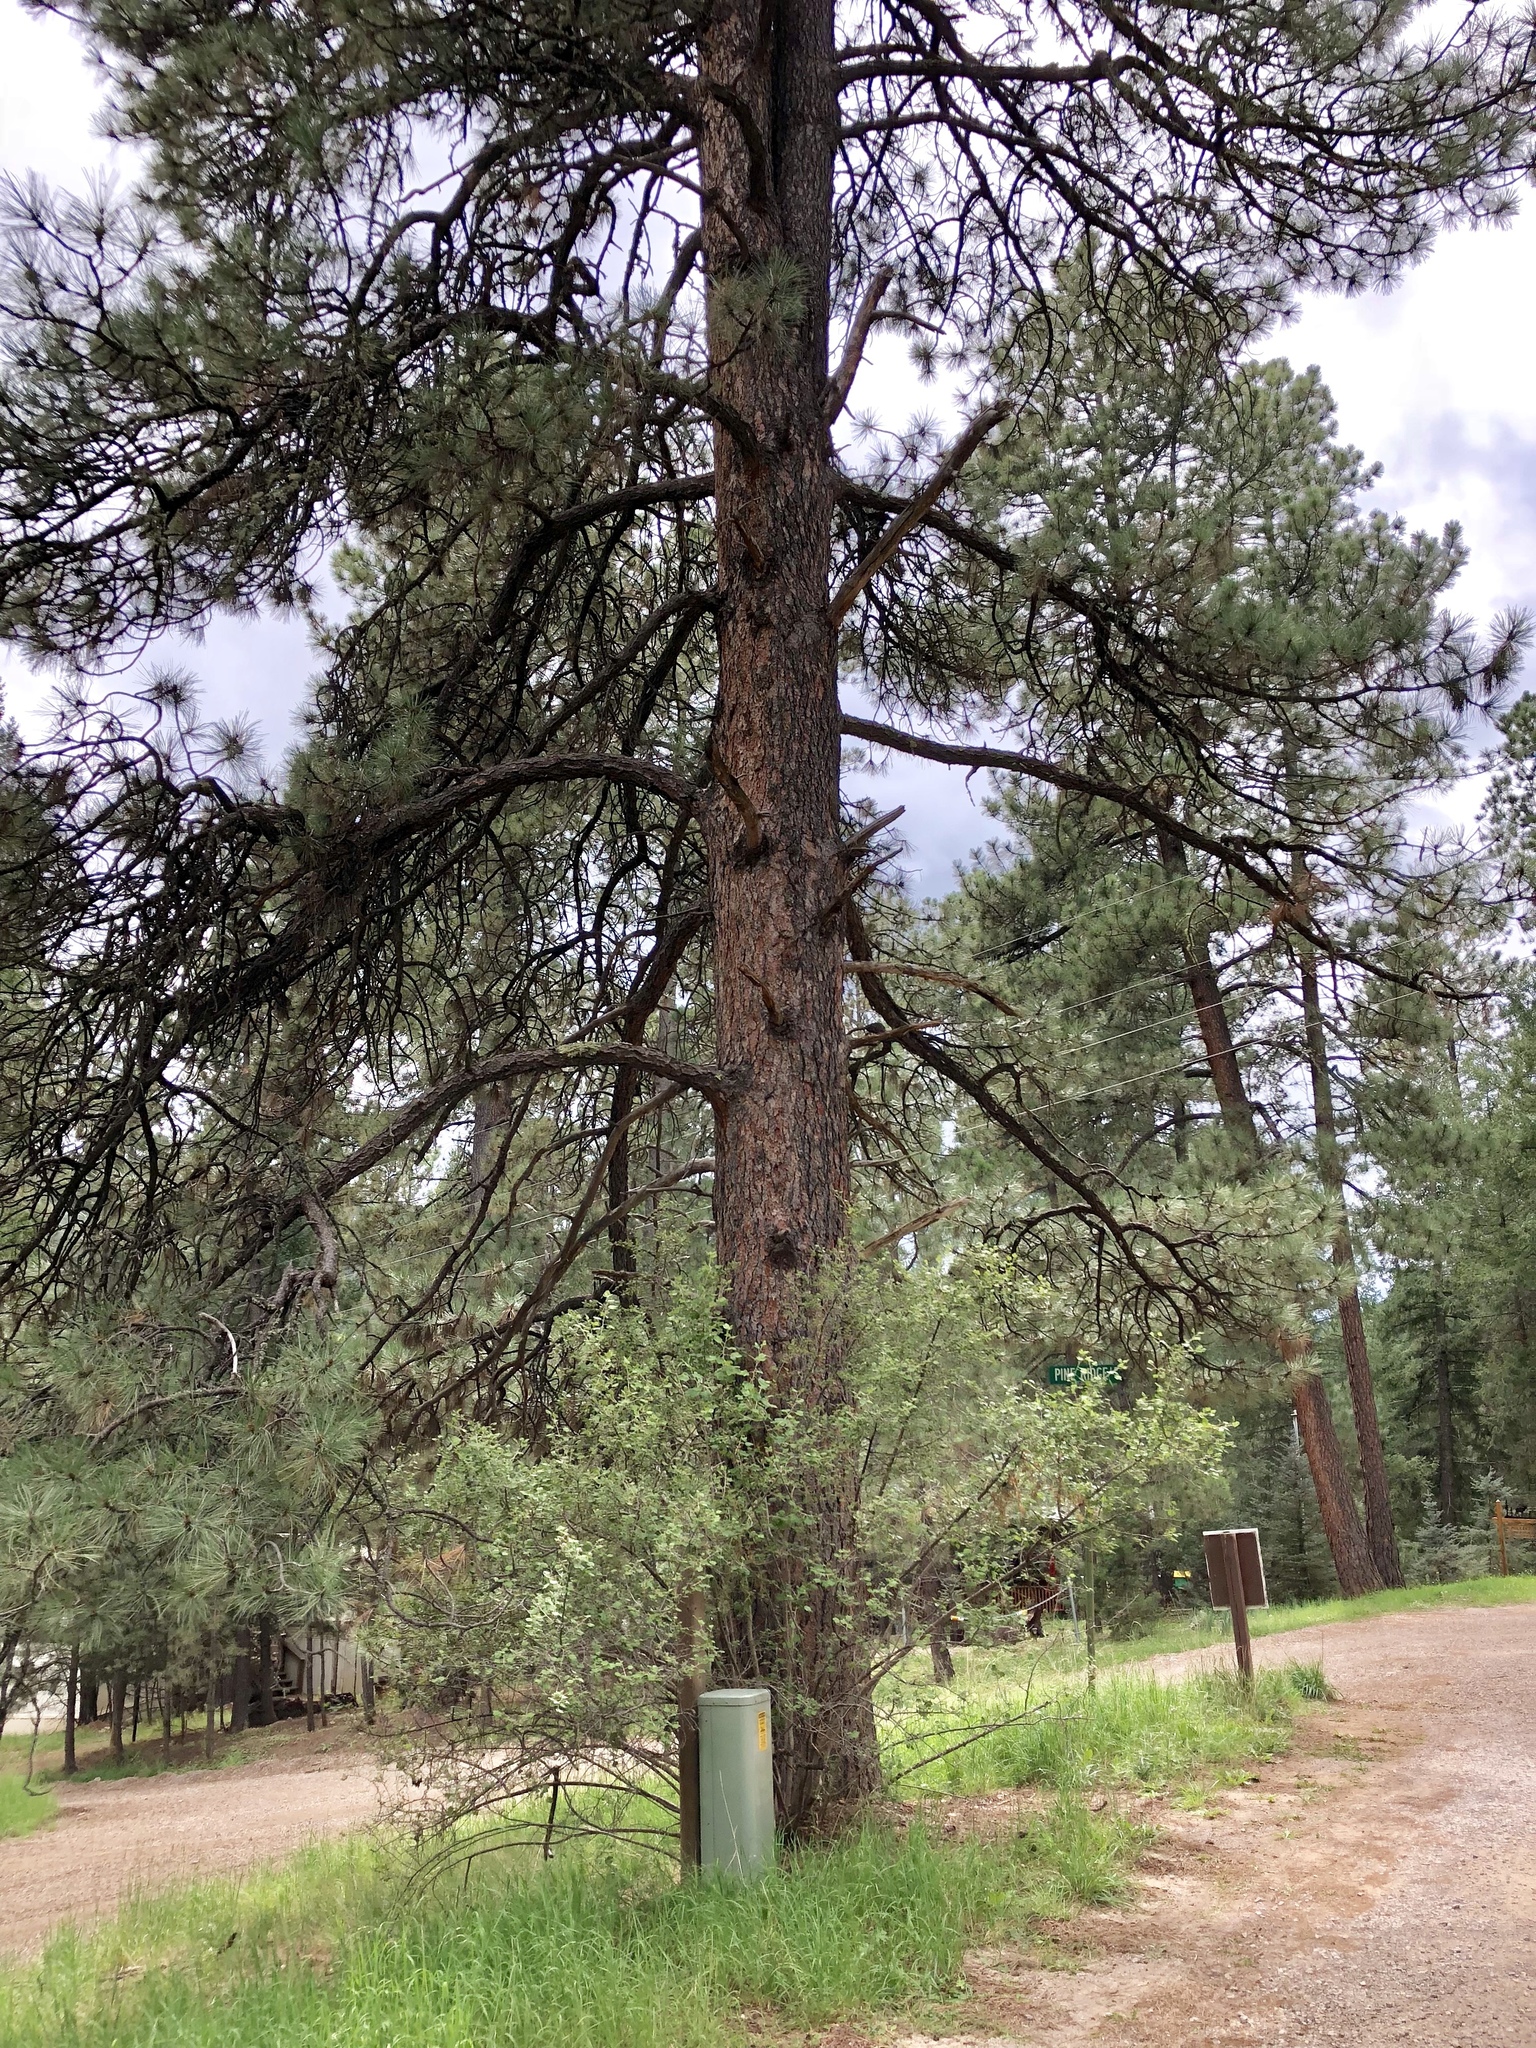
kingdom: Plantae
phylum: Tracheophyta
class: Pinopsida
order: Pinales
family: Pinaceae
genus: Pinus
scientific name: Pinus ponderosa
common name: Western yellow-pine
